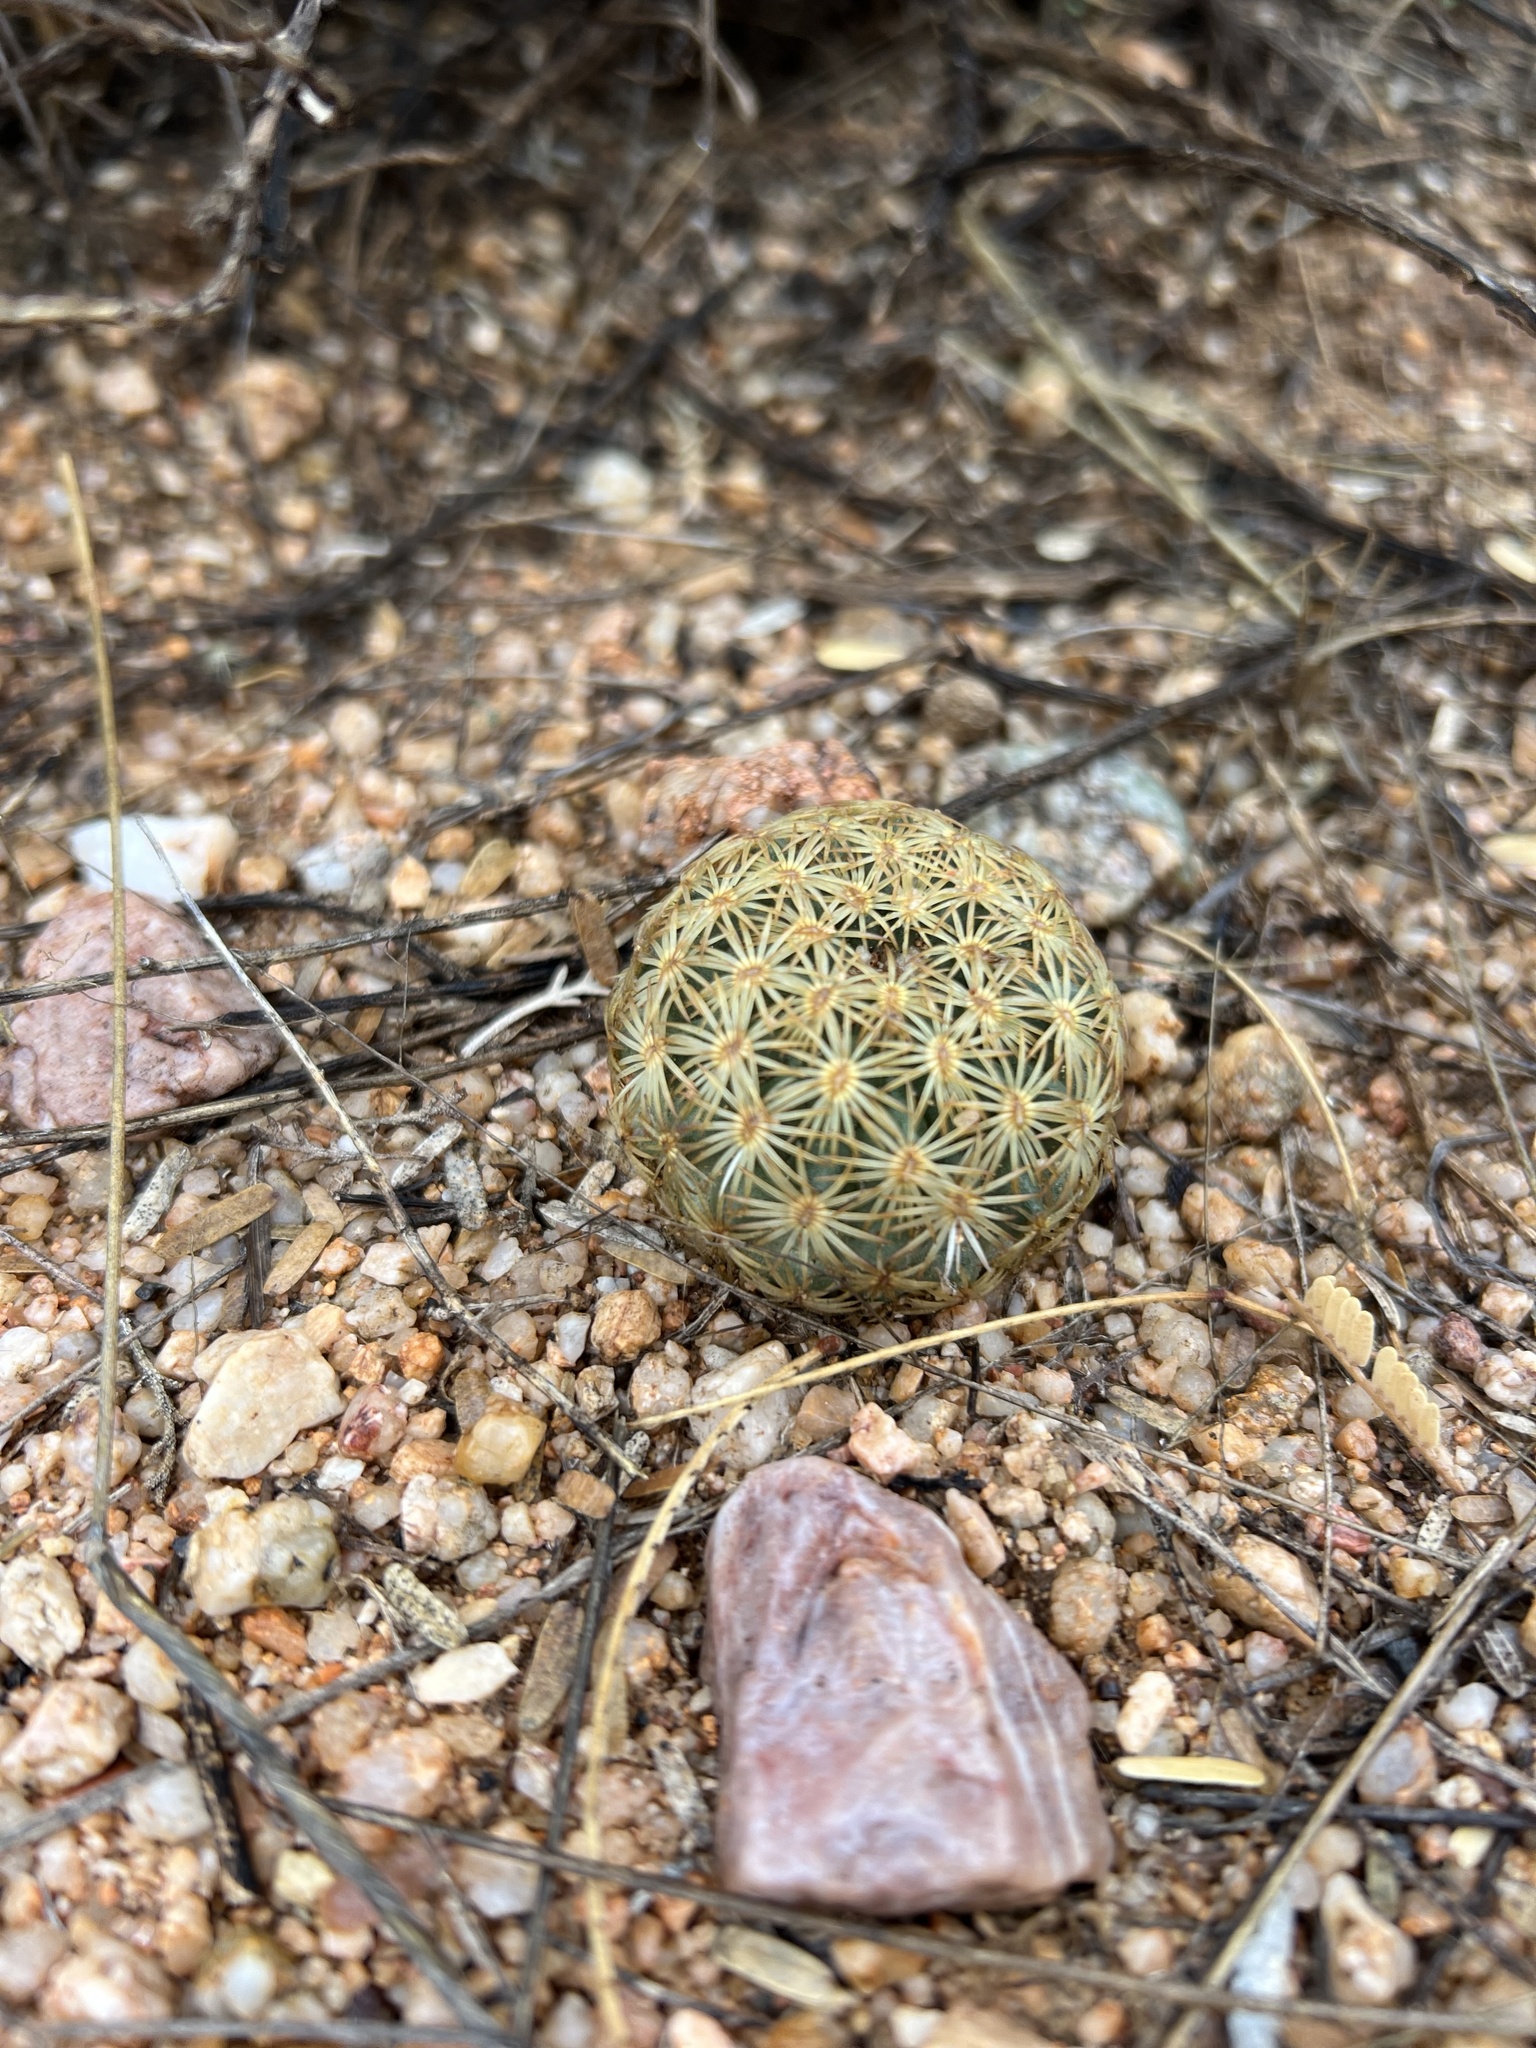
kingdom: Plantae
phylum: Tracheophyta
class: Magnoliopsida
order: Caryophyllales
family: Cactaceae
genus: Sclerocactus
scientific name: Sclerocactus johnsonii
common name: Eight-spine fishhook cactus
